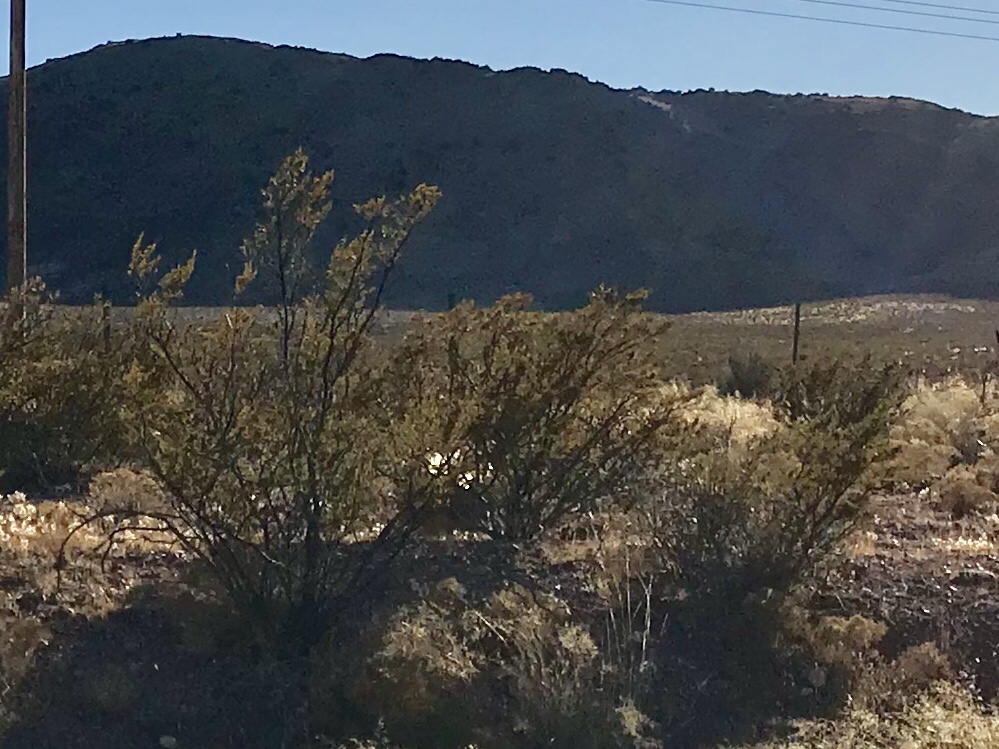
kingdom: Plantae
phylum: Tracheophyta
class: Magnoliopsida
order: Zygophyllales
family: Zygophyllaceae
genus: Larrea
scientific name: Larrea tridentata
